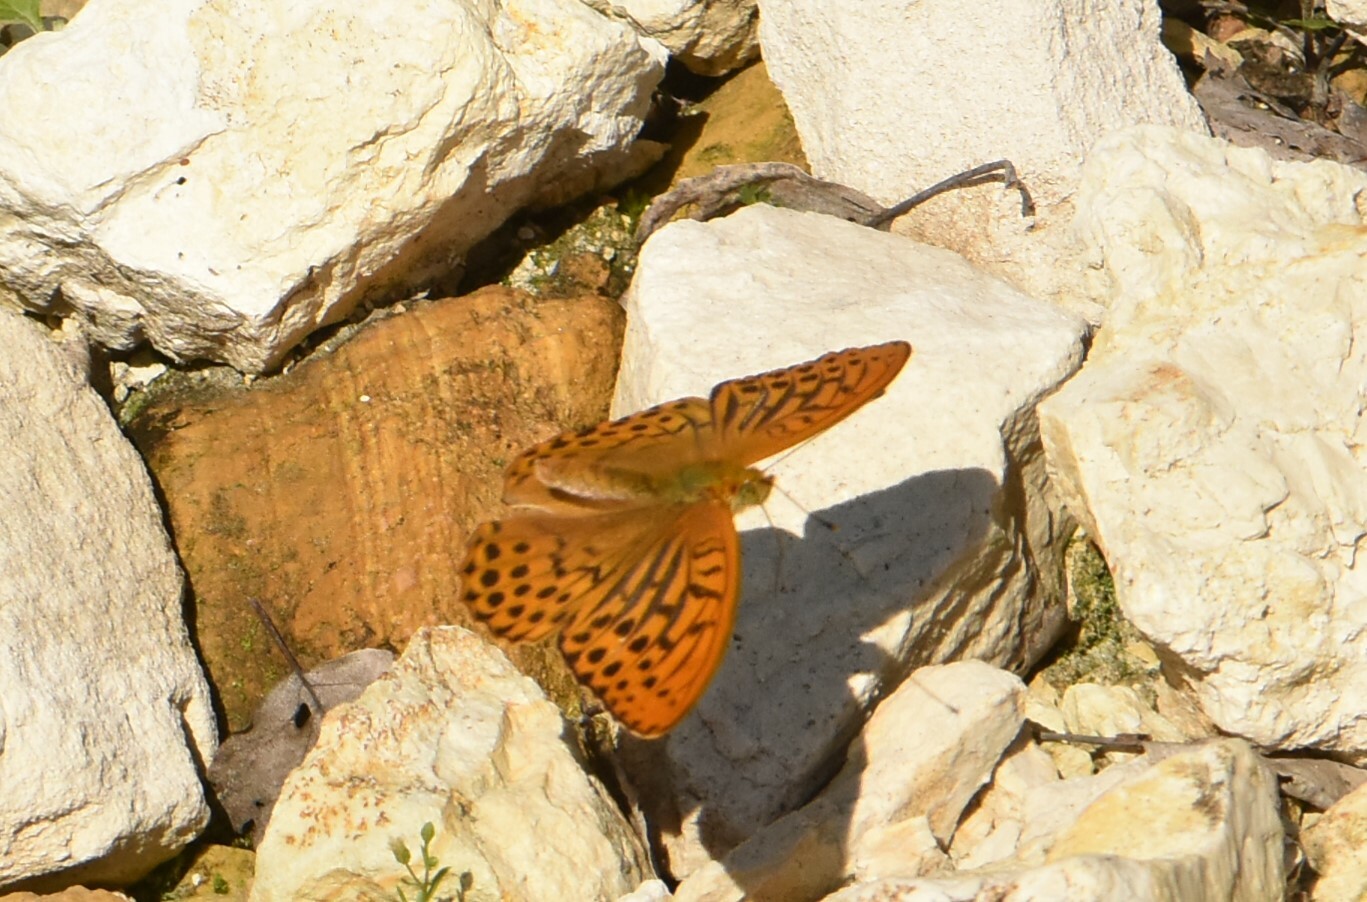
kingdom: Animalia
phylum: Arthropoda
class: Insecta
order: Lepidoptera
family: Nymphalidae
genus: Argynnis
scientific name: Argynnis paphia
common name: Silver-washed fritillary
